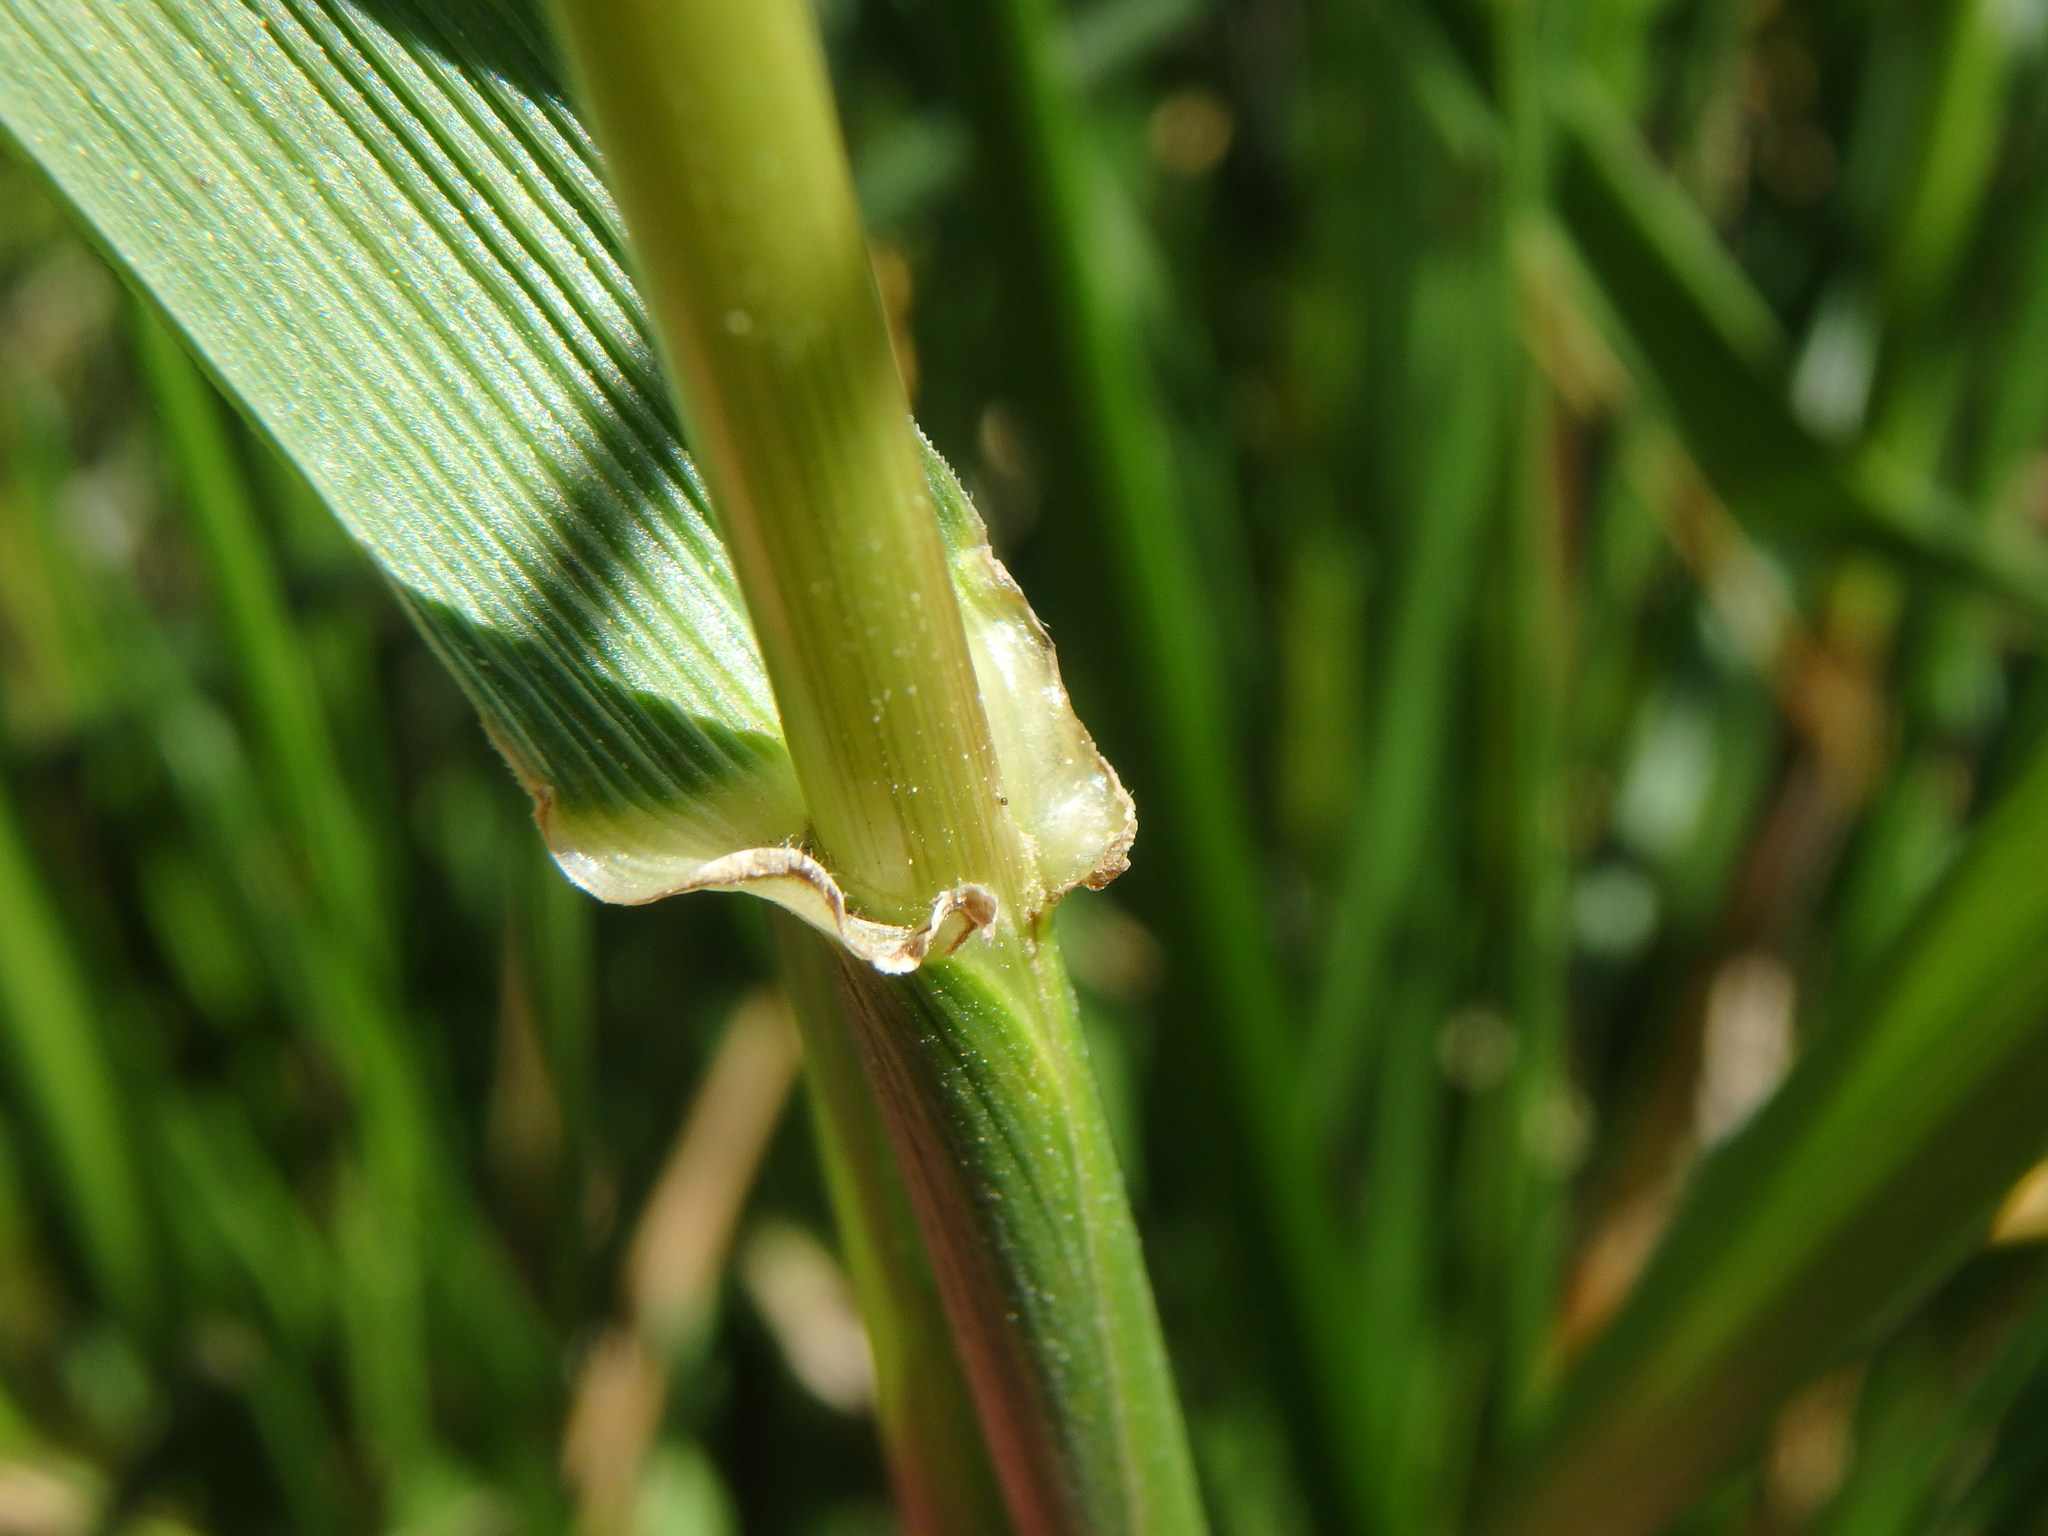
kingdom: Plantae
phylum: Tracheophyta
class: Liliopsida
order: Poales
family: Poaceae
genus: Lolium
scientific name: Lolium arundinaceum
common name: Reed fescue
